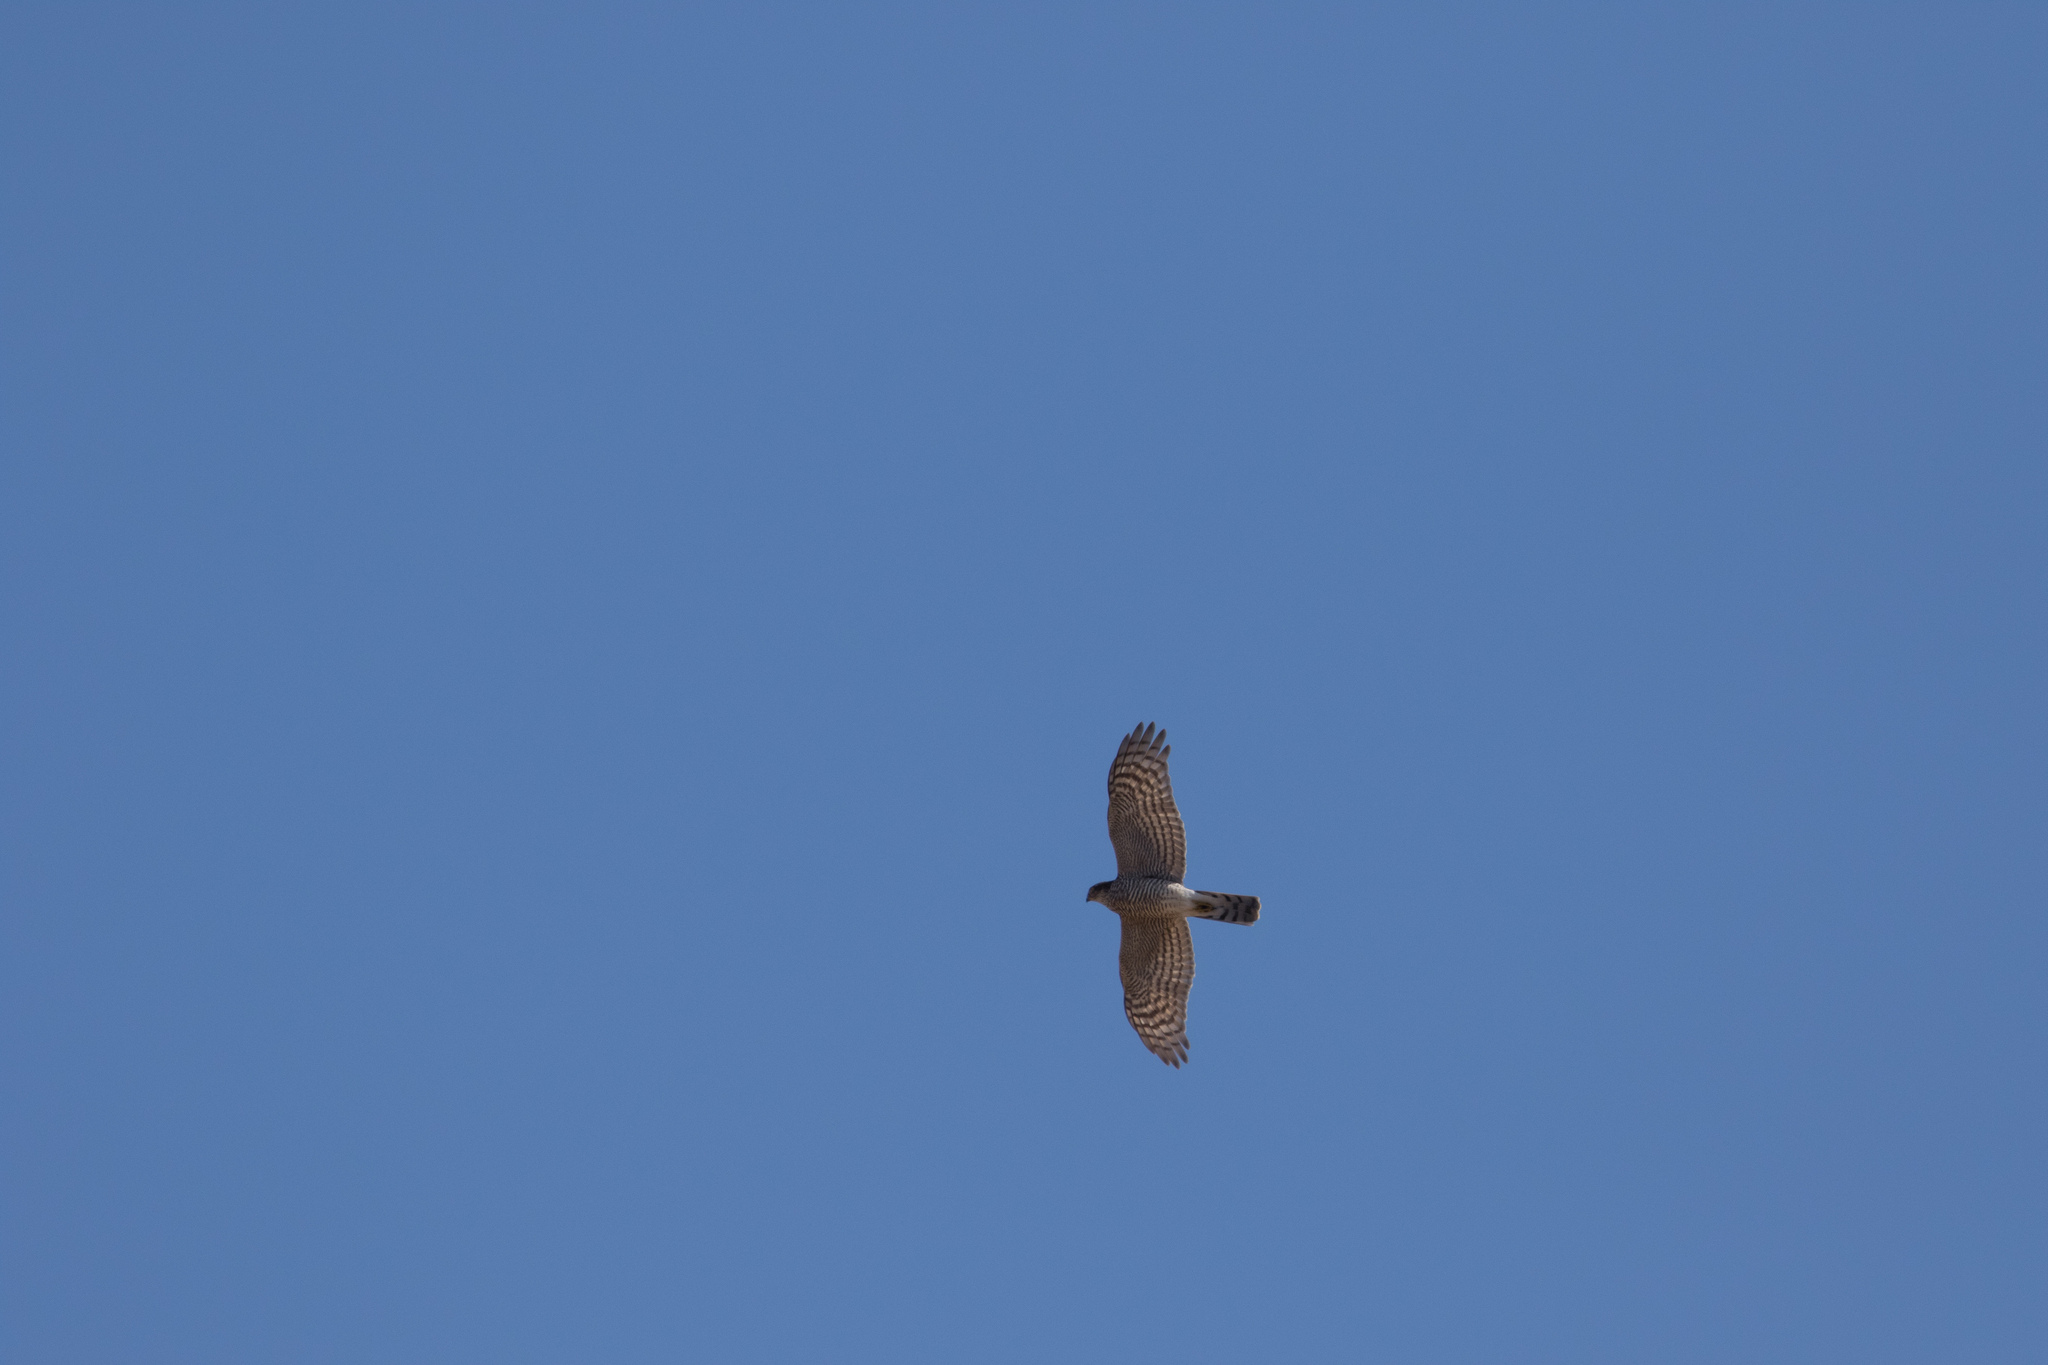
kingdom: Animalia
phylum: Chordata
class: Aves
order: Accipitriformes
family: Accipitridae
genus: Accipiter
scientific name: Accipiter nisus
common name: Eurasian sparrowhawk
